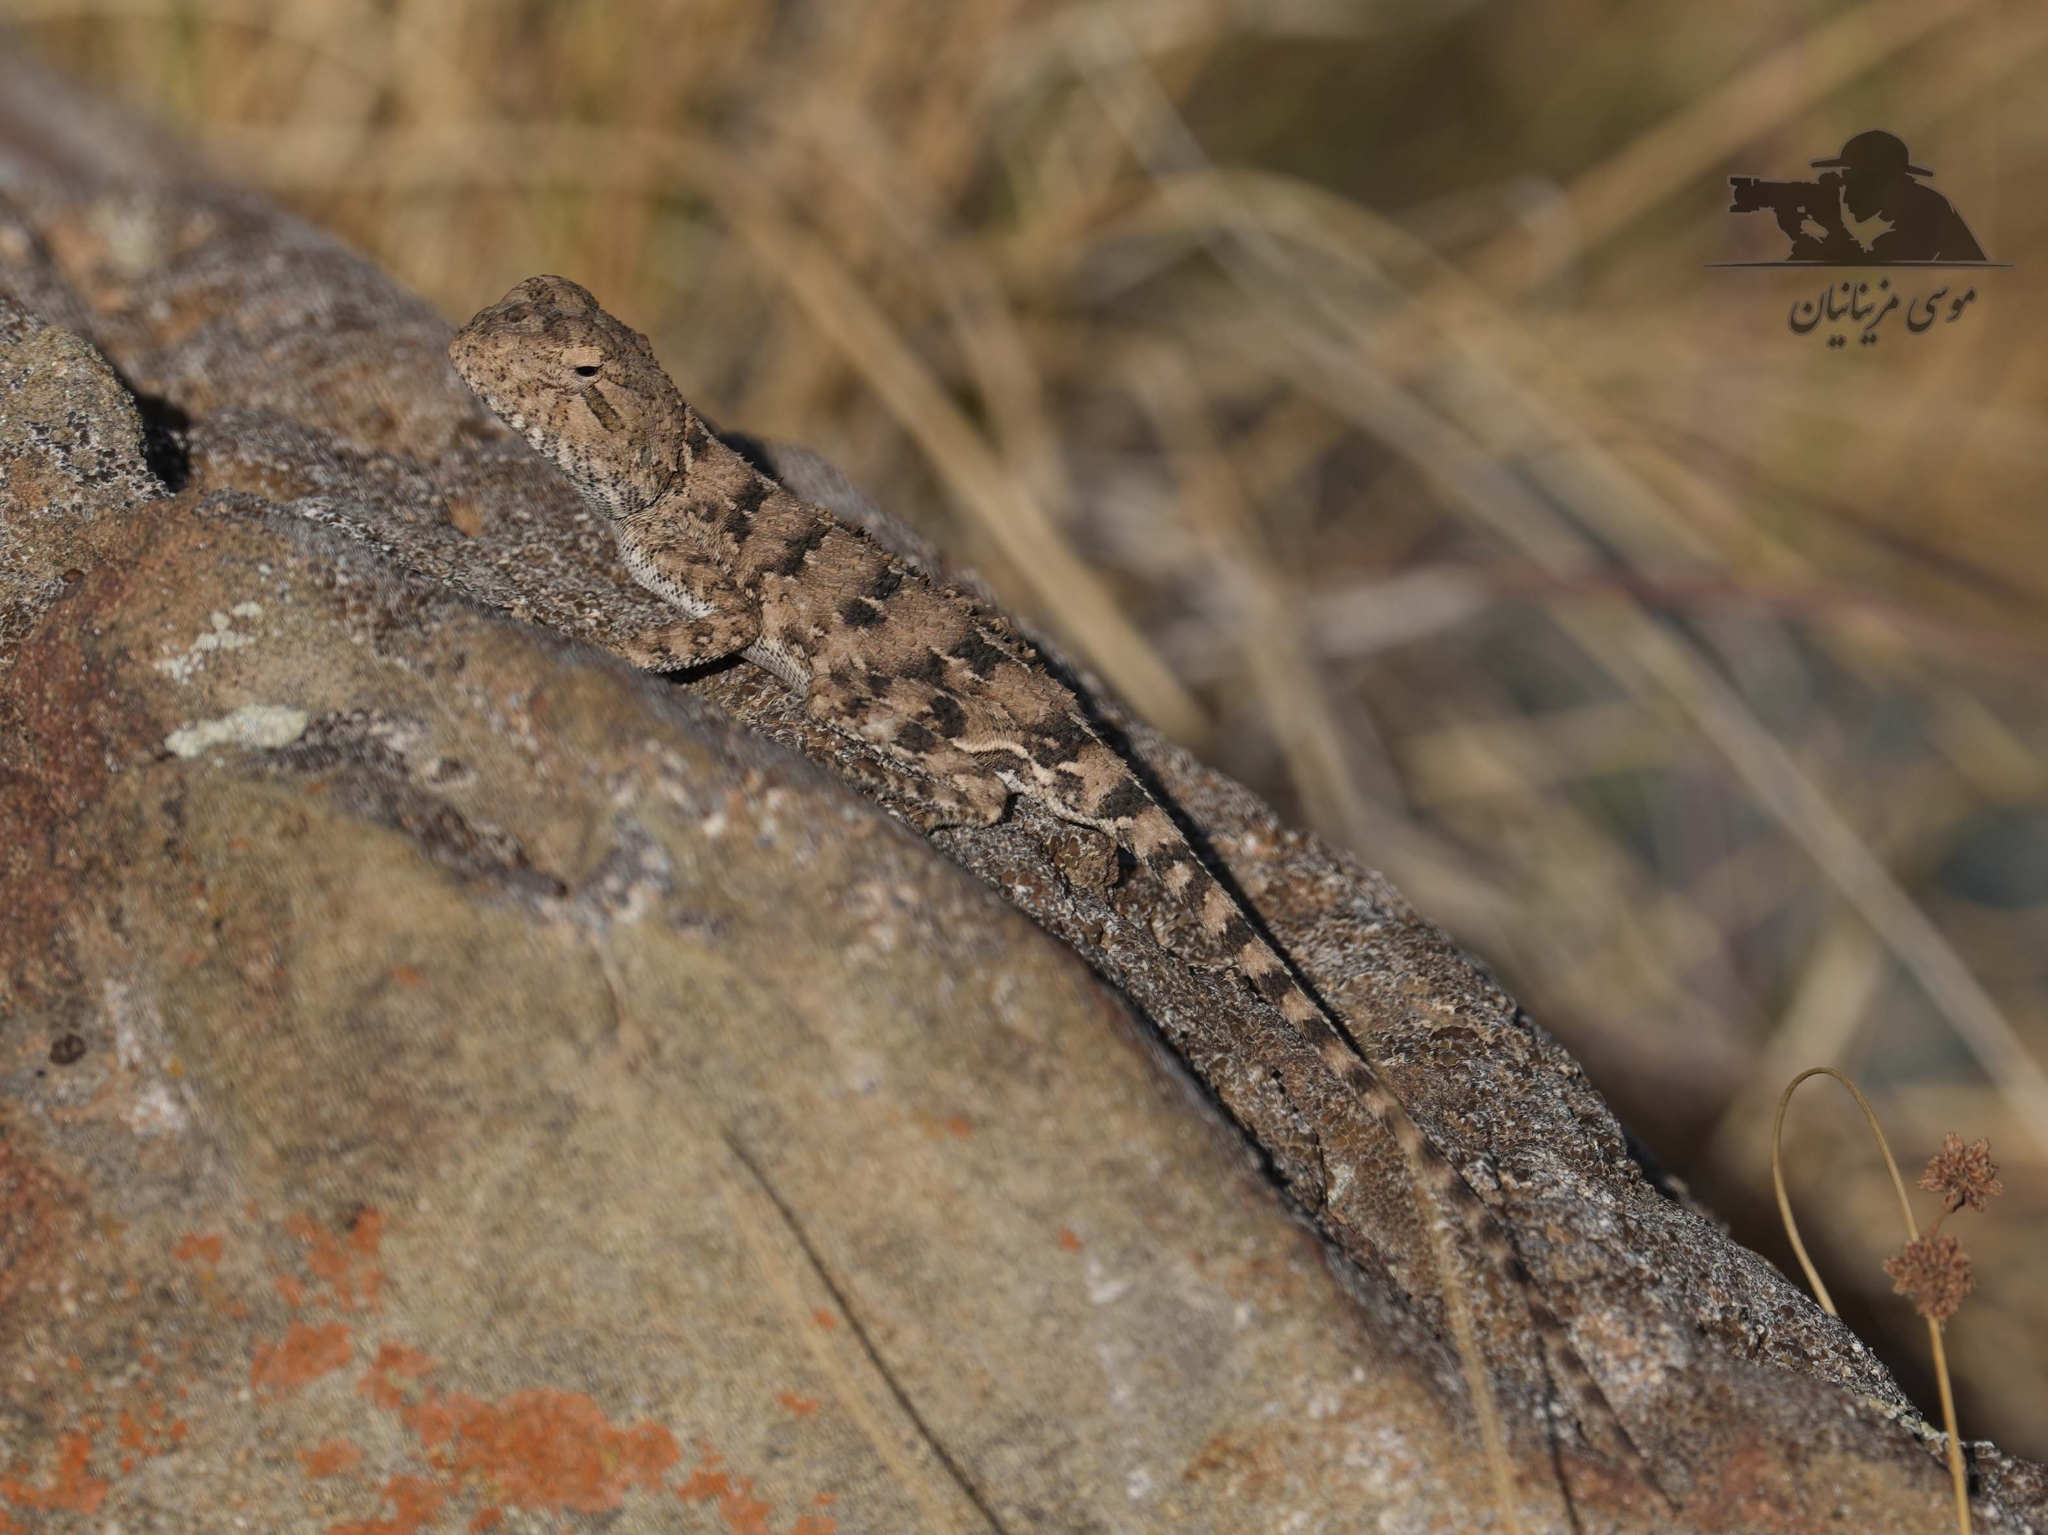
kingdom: Animalia
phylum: Chordata
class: Squamata
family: Agamidae
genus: Trapelus
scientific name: Trapelus ruderatus
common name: Baluch ground agama
